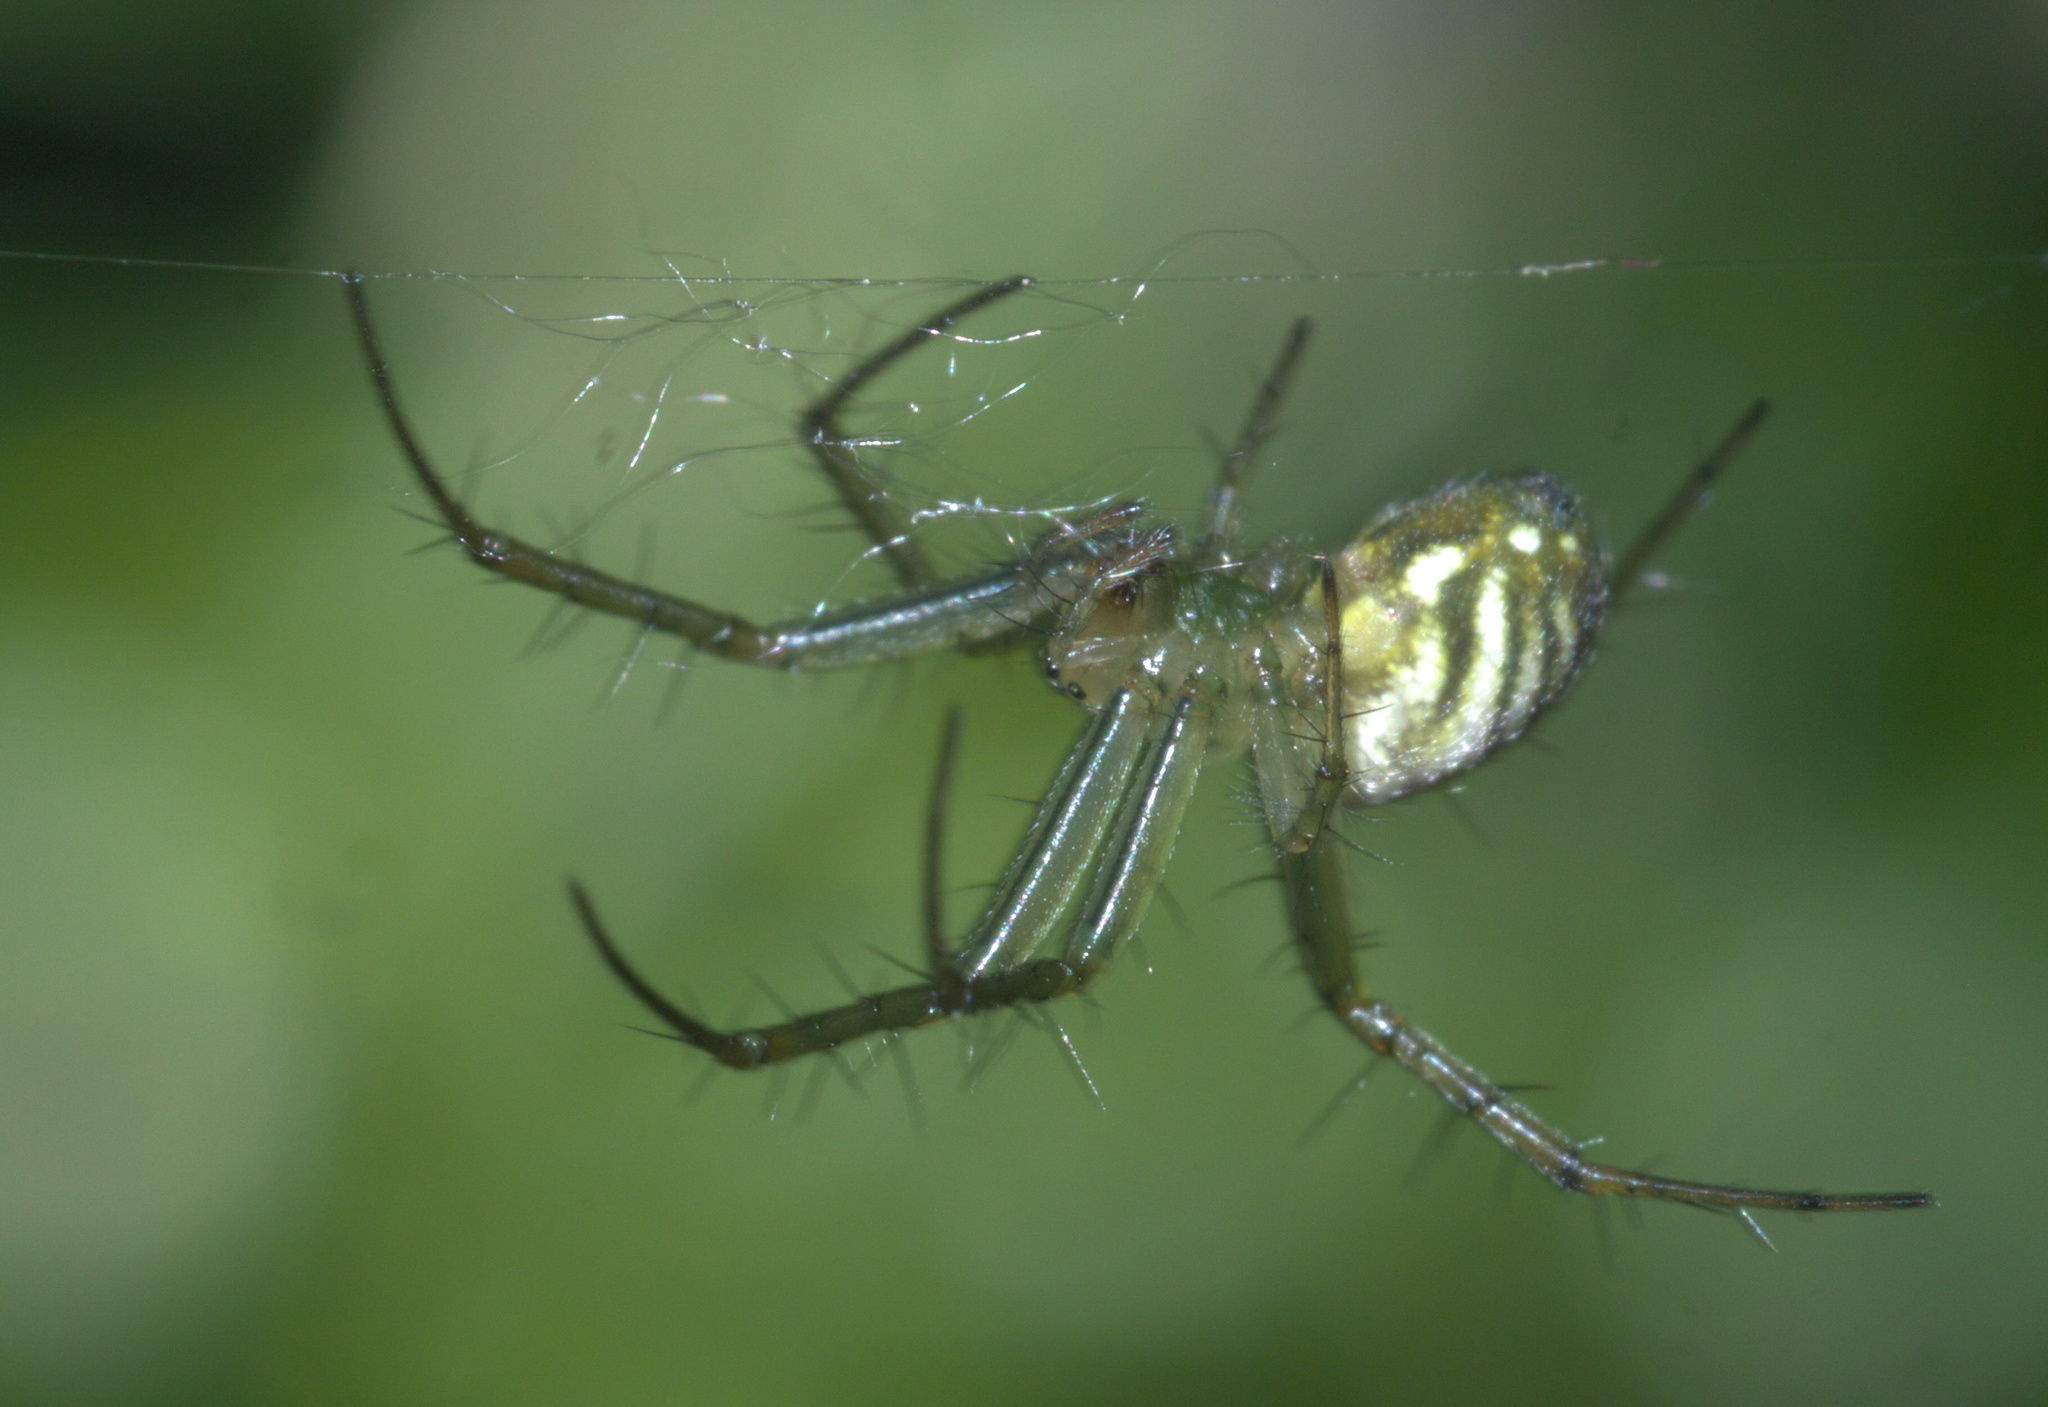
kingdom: Animalia
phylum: Arthropoda
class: Arachnida
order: Araneae
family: Araneidae
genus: Mangora
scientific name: Mangora gibberosa
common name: Lined orbweaver
